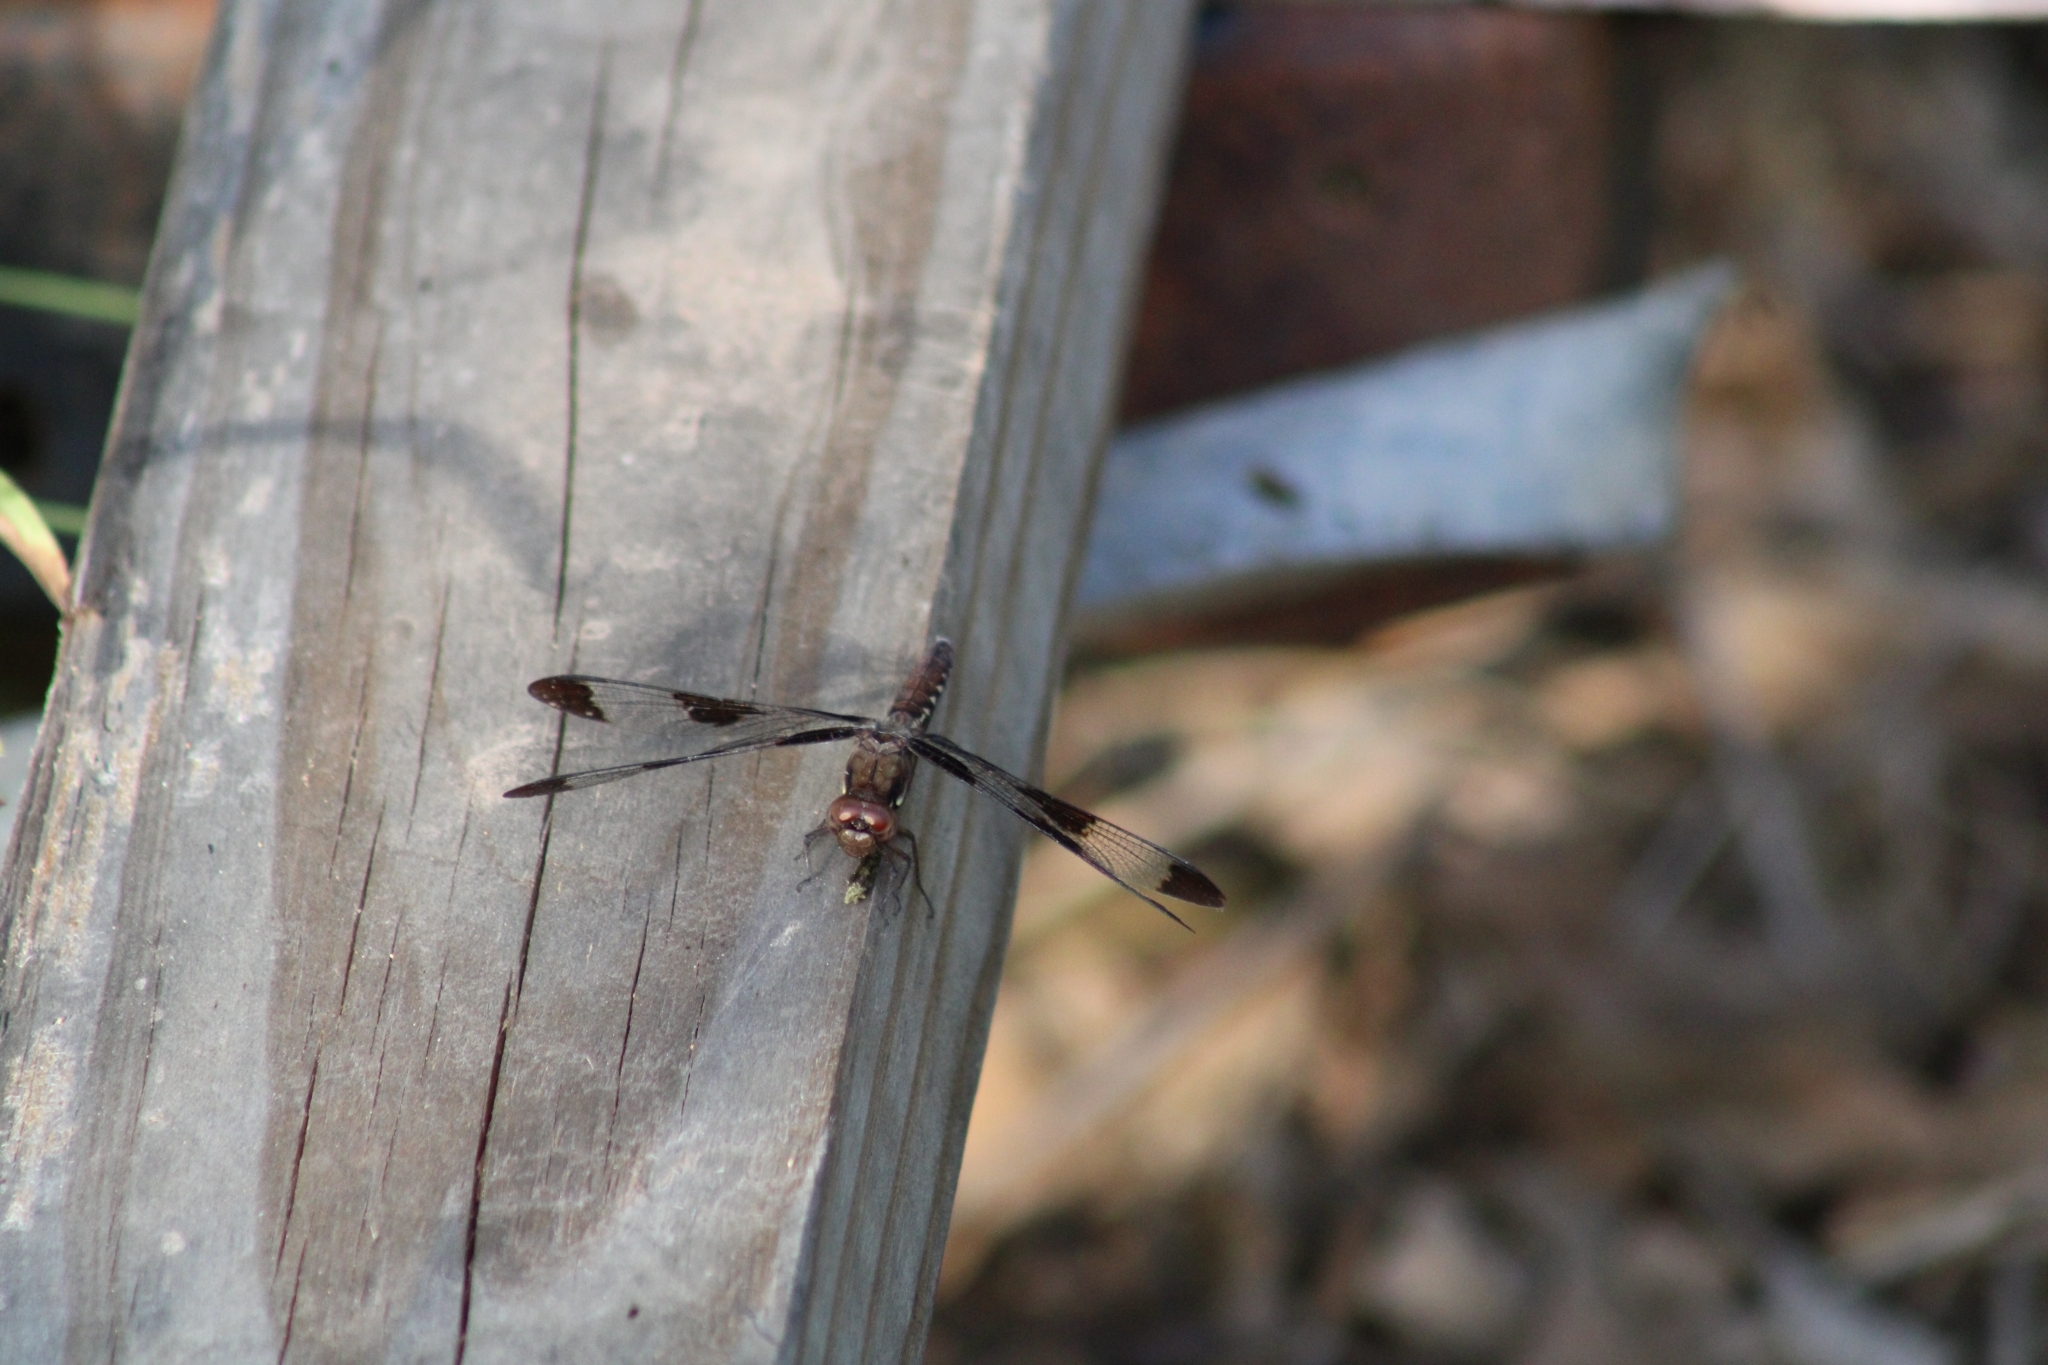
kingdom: Animalia
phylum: Arthropoda
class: Insecta
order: Odonata
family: Libellulidae
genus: Plathemis
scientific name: Plathemis lydia
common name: Common whitetail
